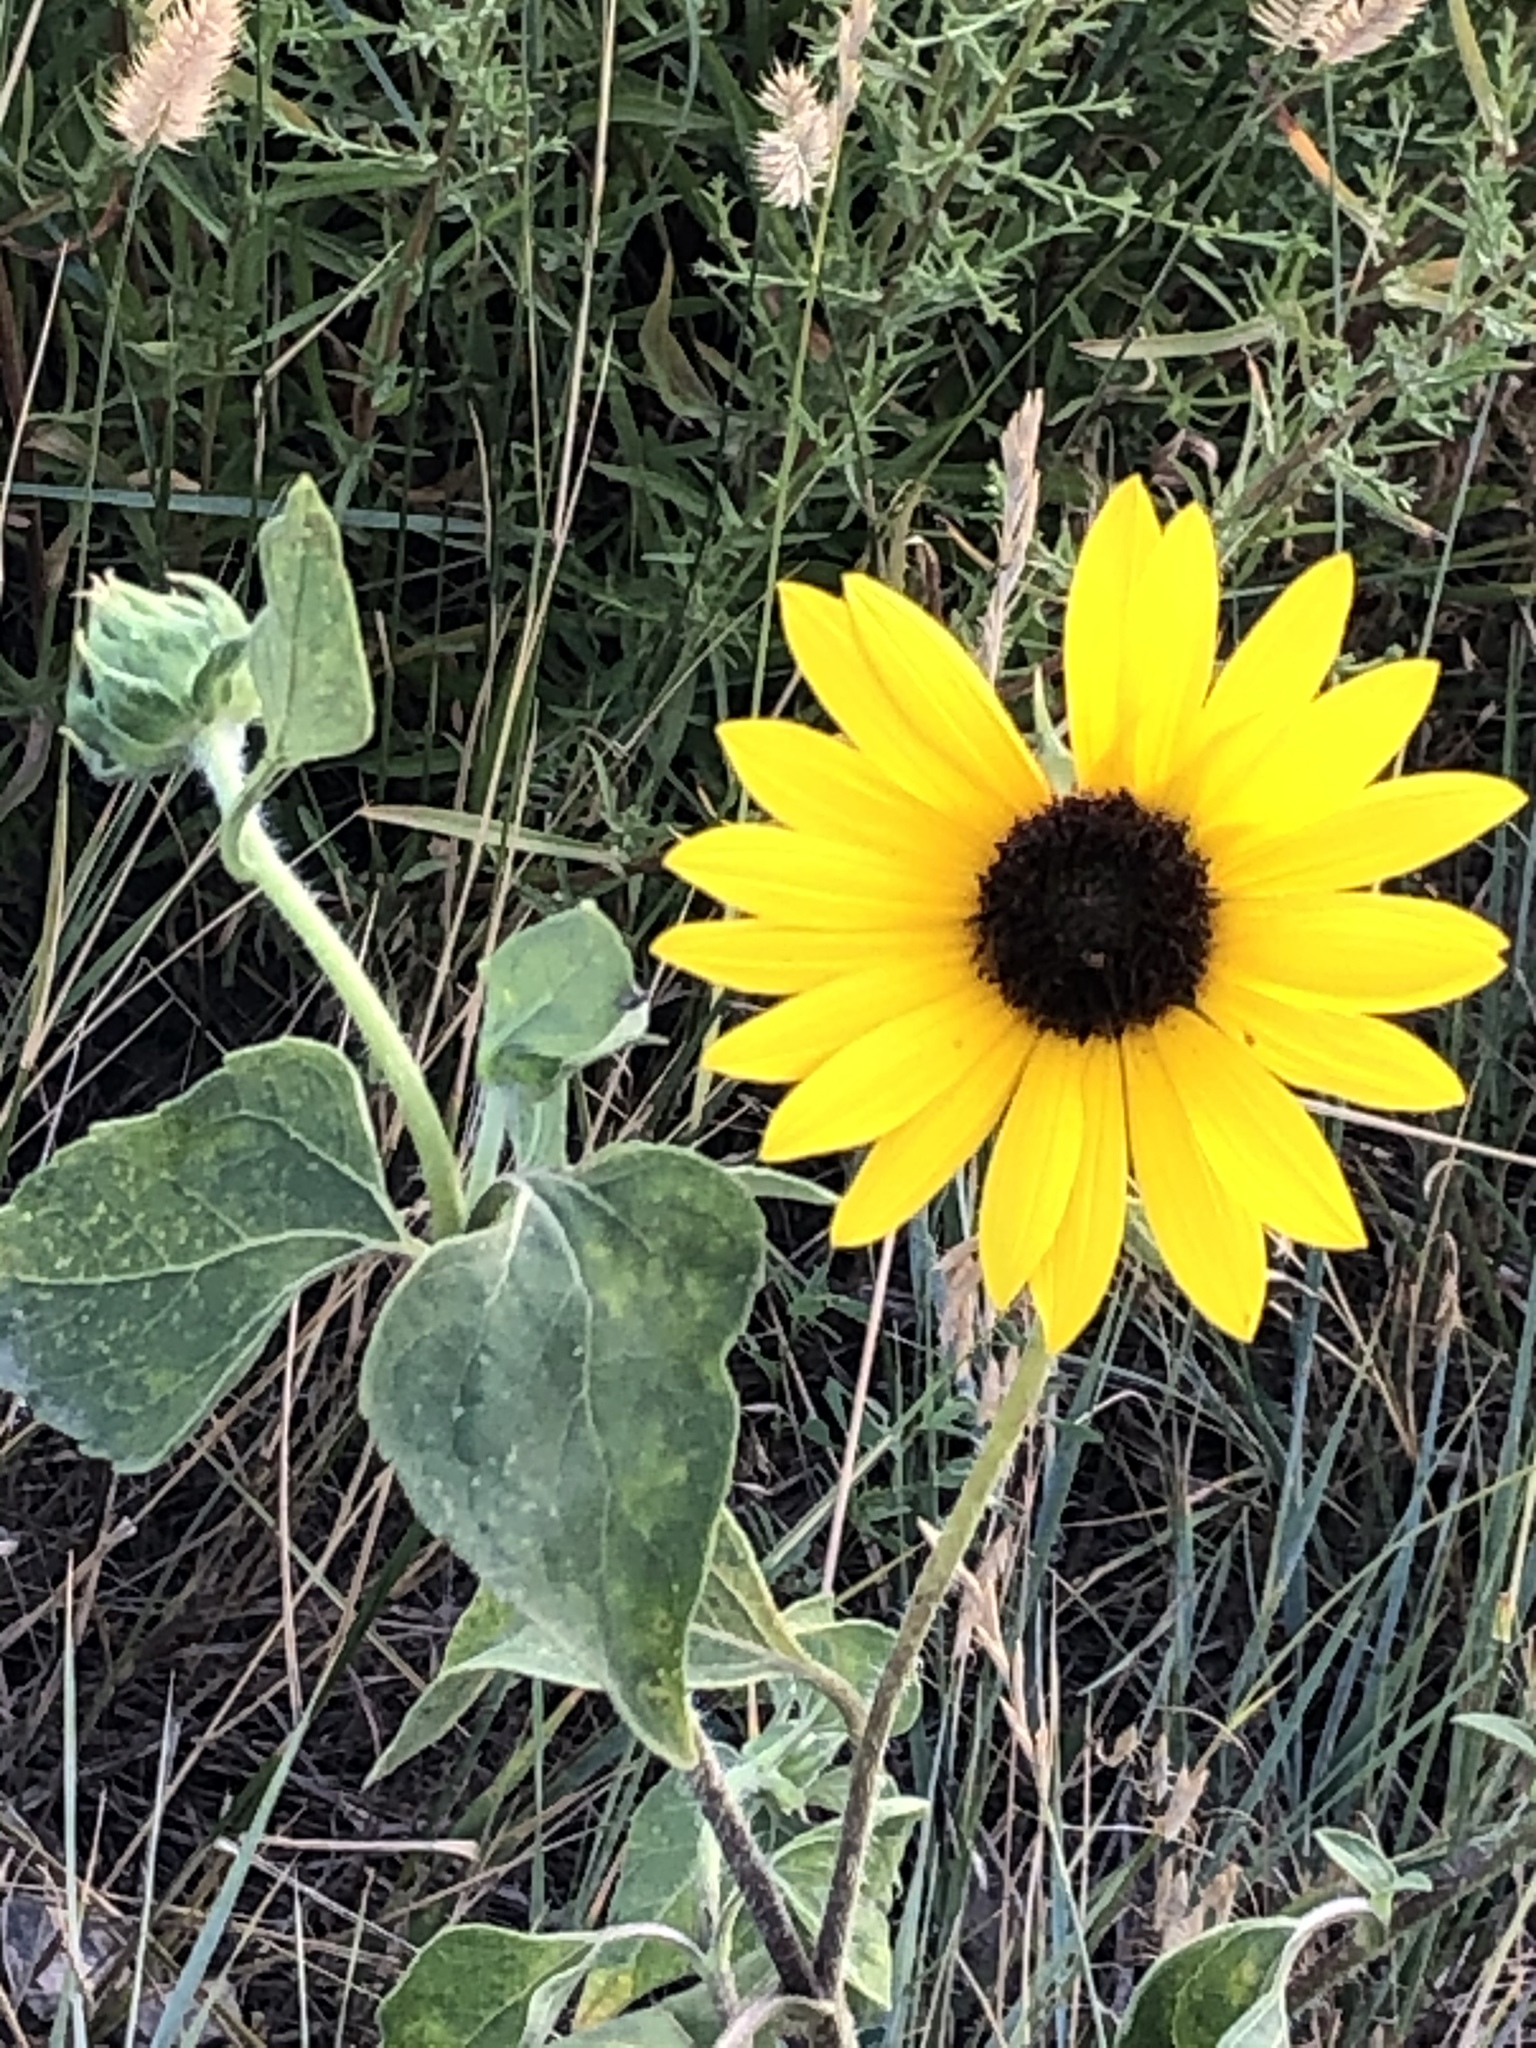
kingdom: Plantae
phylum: Tracheophyta
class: Magnoliopsida
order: Asterales
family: Asteraceae
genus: Helianthus
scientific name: Helianthus annuus
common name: Sunflower
